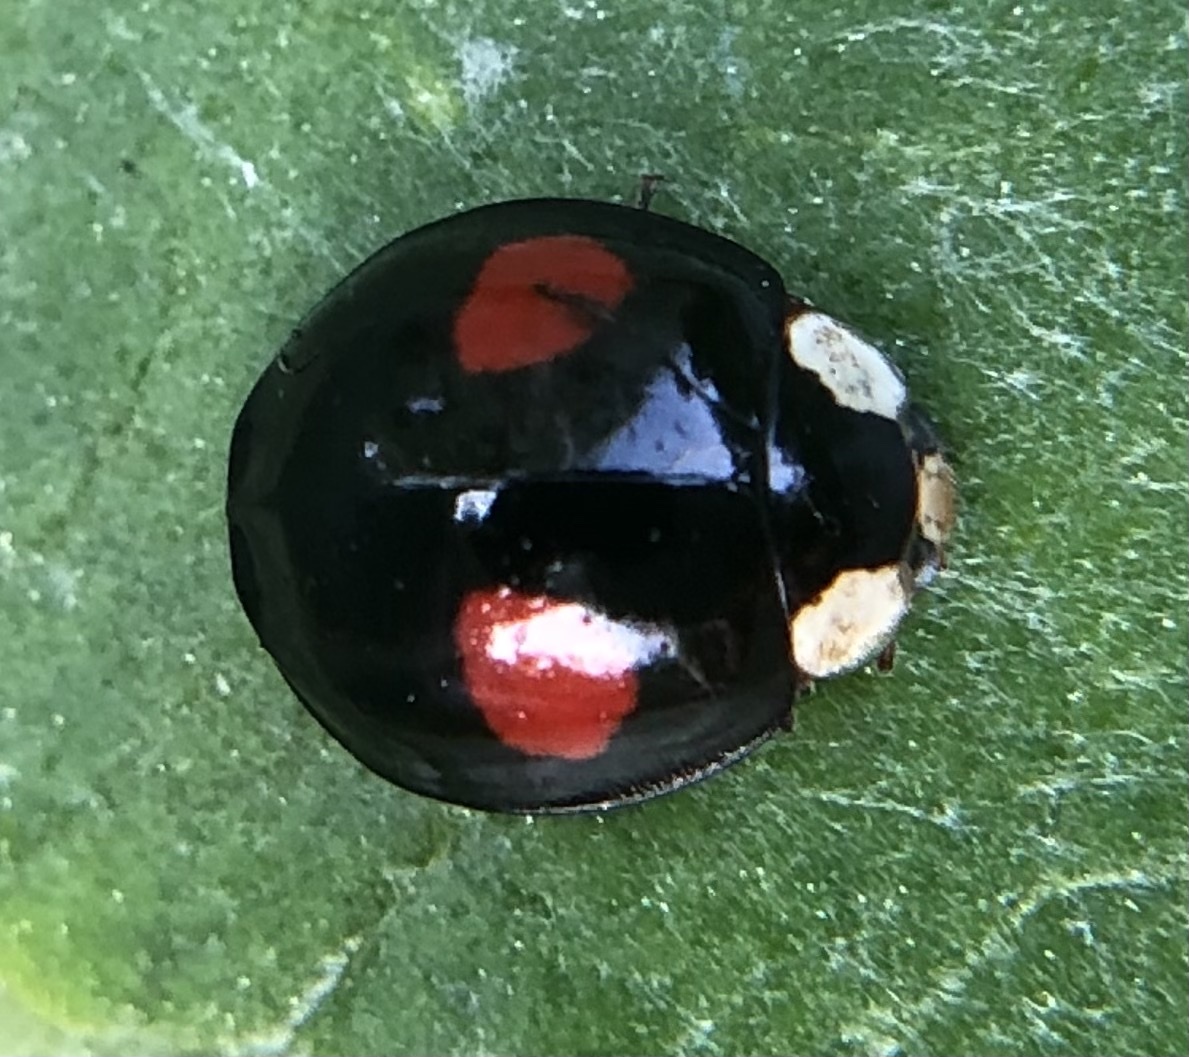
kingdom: Animalia
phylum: Arthropoda
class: Insecta
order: Coleoptera
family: Coccinellidae
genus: Harmonia
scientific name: Harmonia axyridis
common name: Harlequin ladybird
